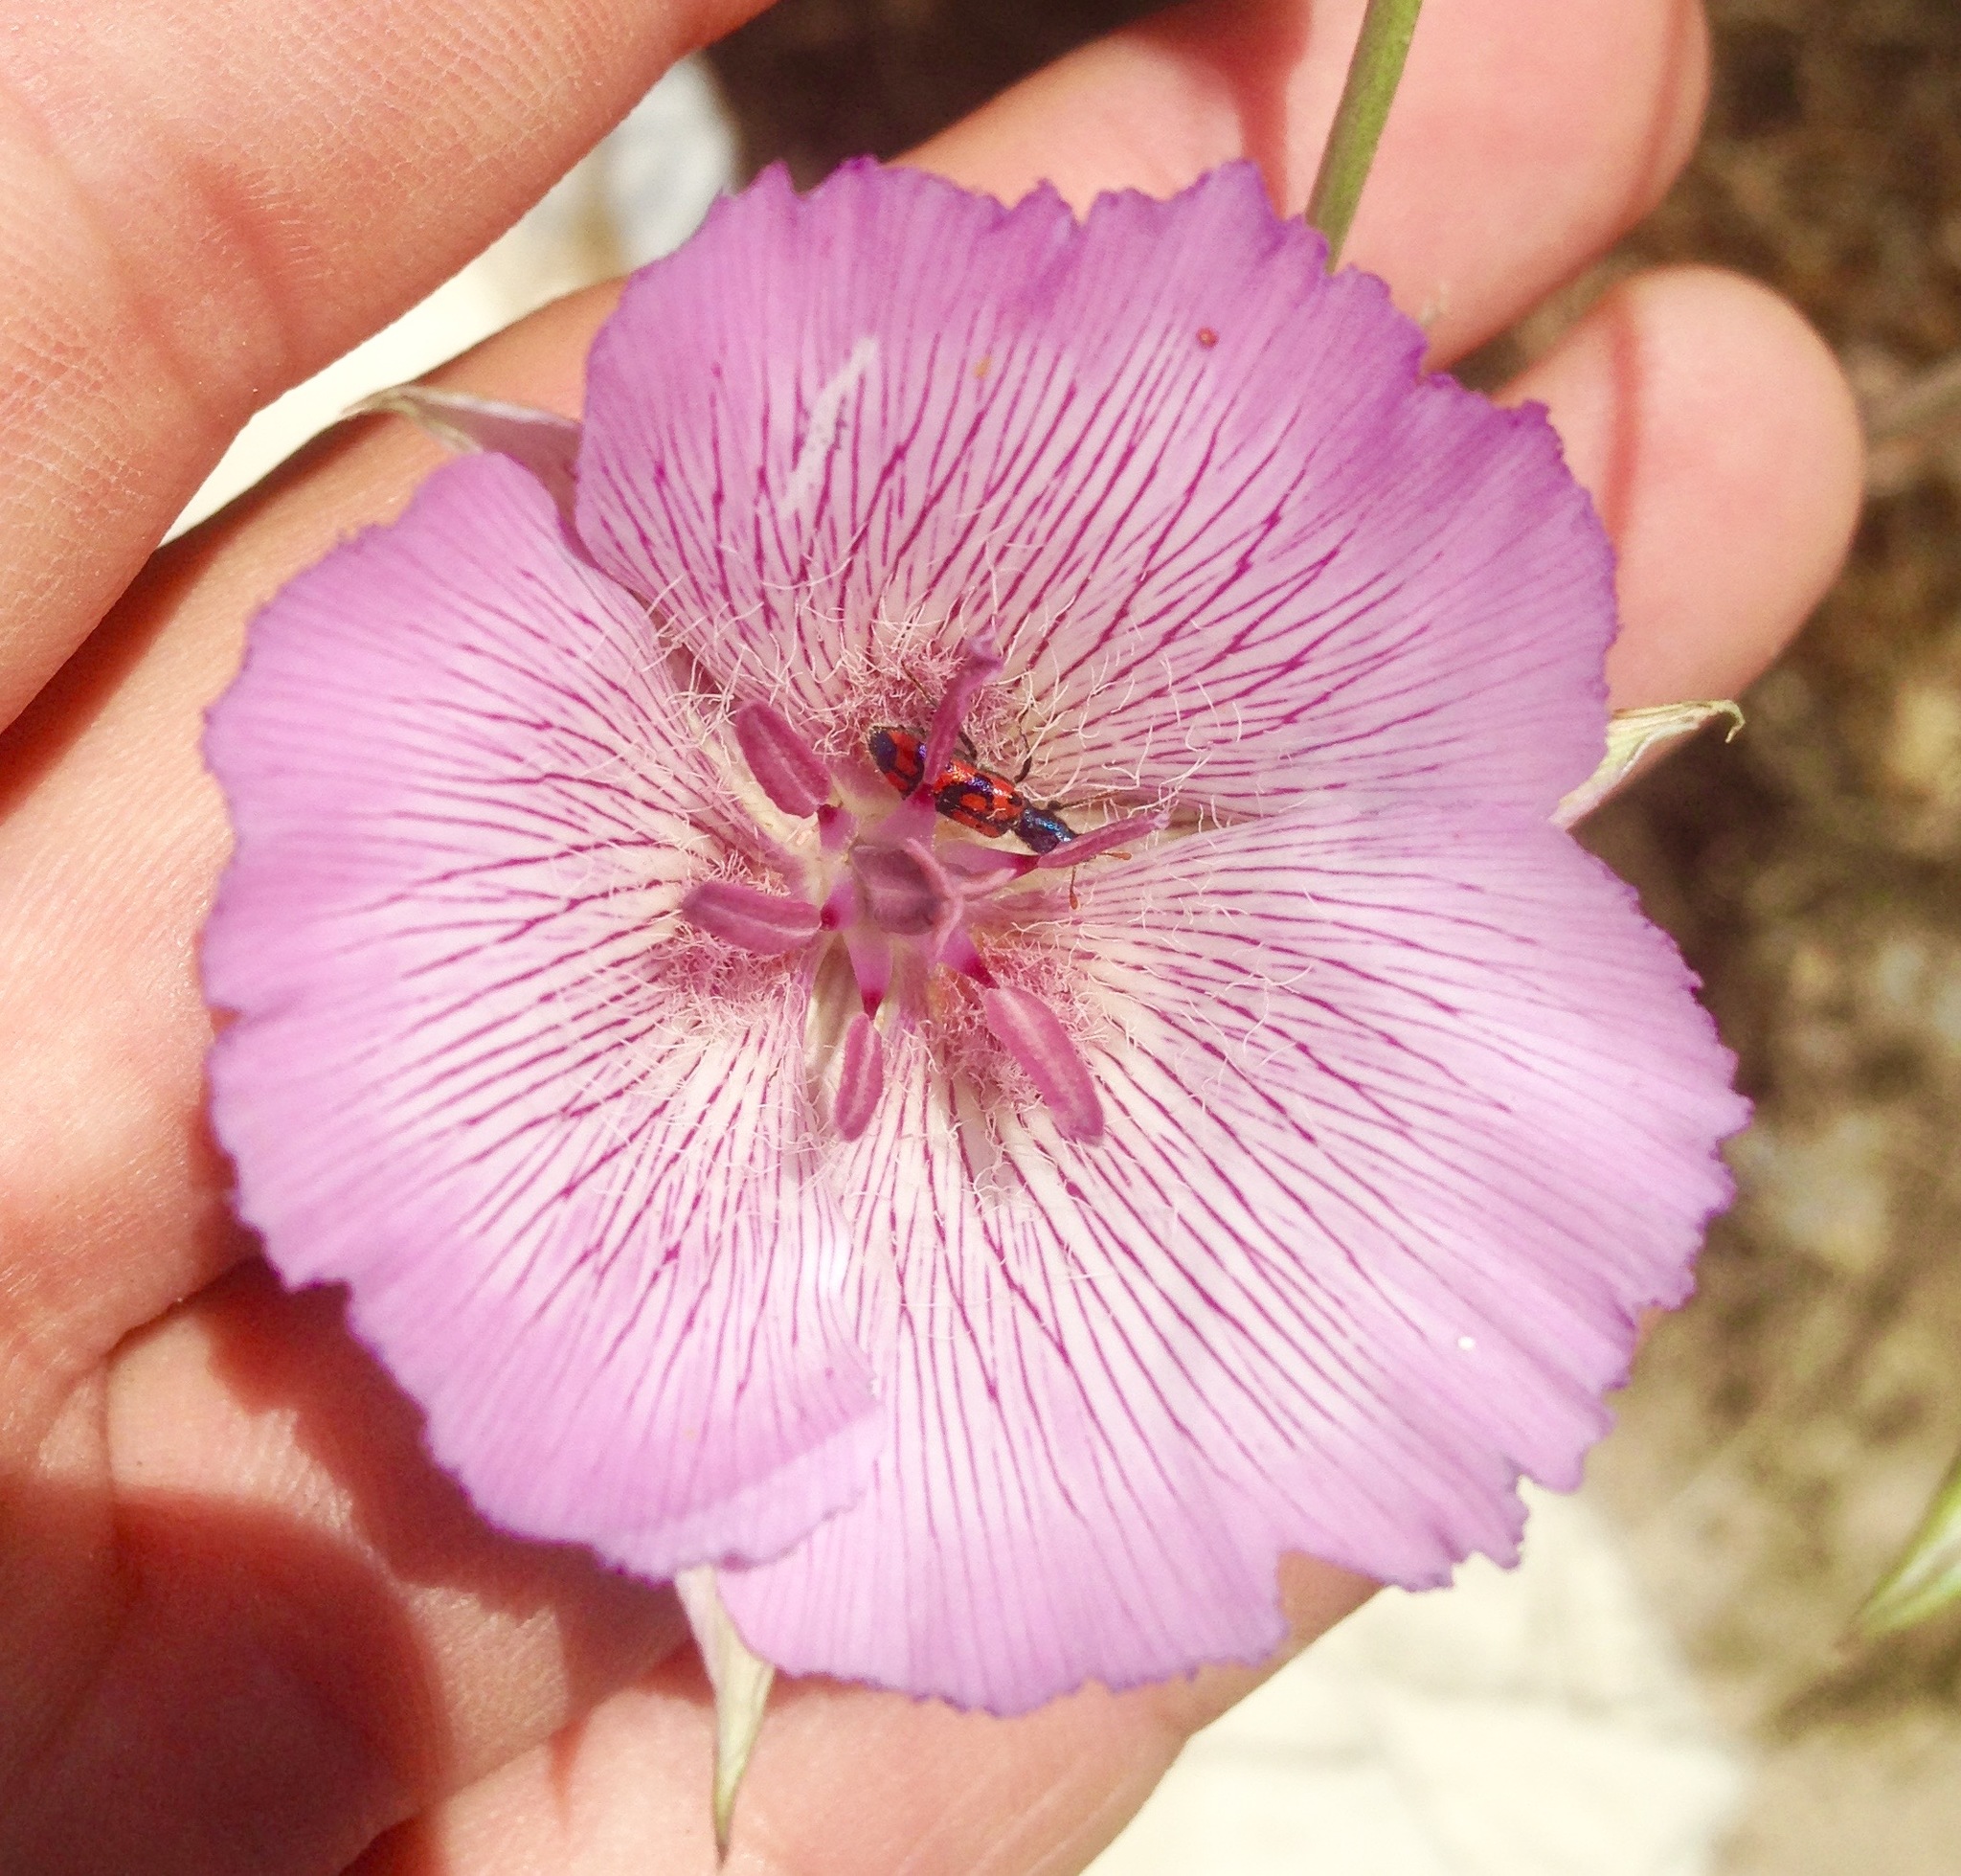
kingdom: Plantae
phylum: Tracheophyta
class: Liliopsida
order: Liliales
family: Liliaceae
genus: Calochortus
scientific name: Calochortus striatus
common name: Alkali mariposa-lily
